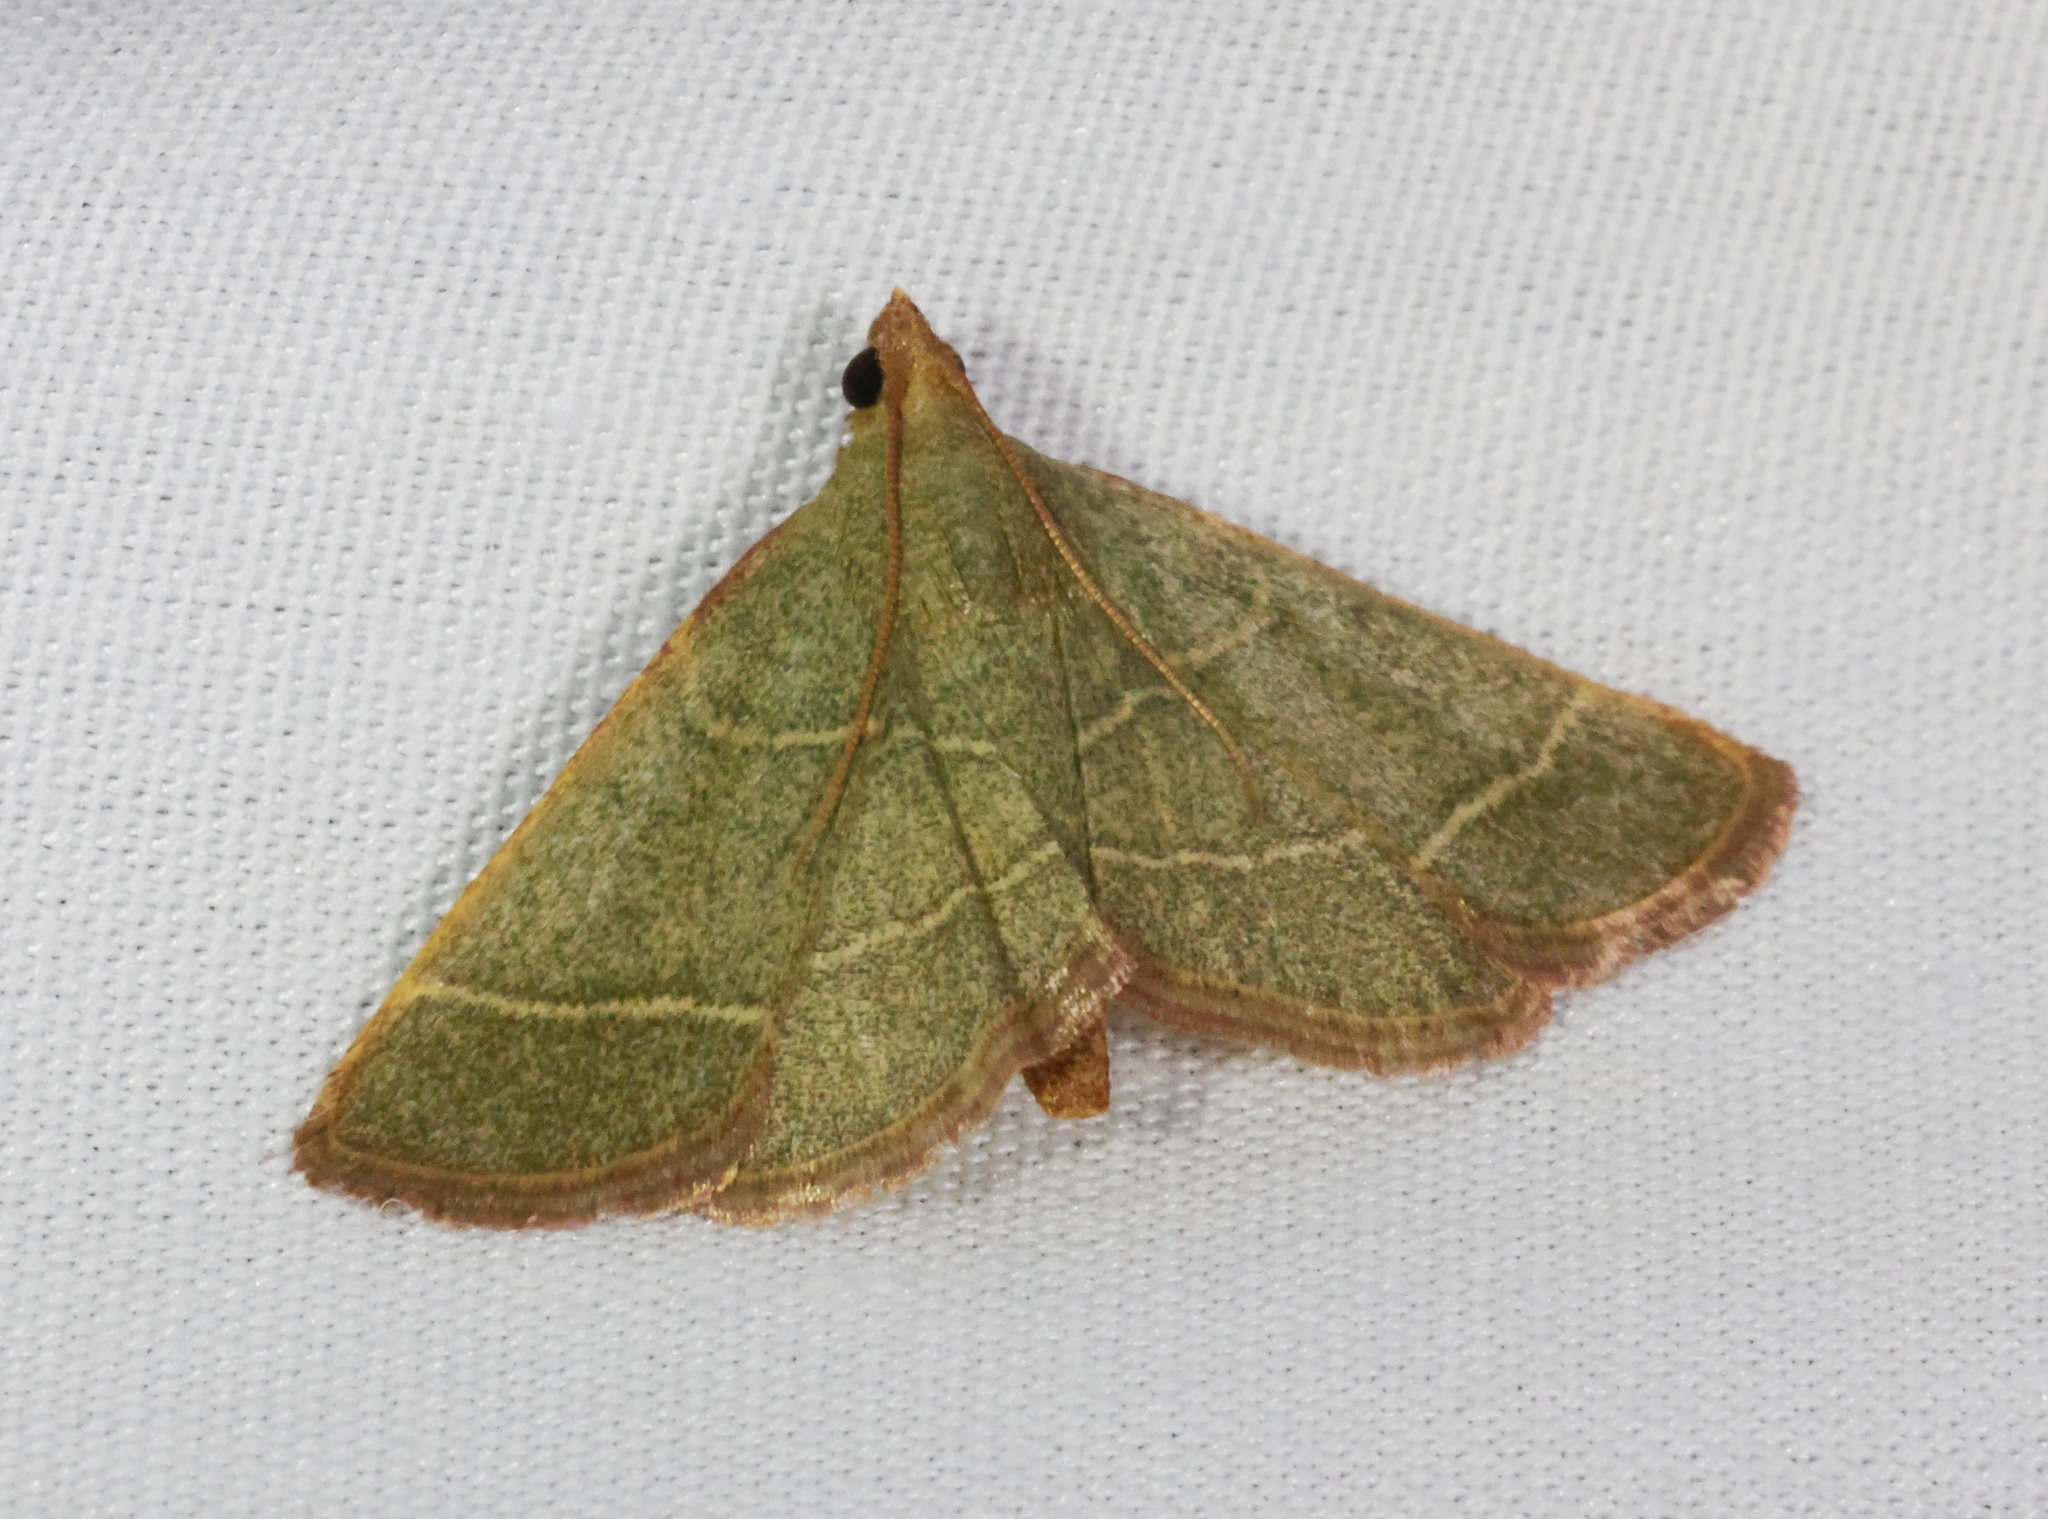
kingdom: Animalia
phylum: Arthropoda
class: Insecta
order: Lepidoptera
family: Pyralidae
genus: Hypsopygia
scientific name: Hypsopygia
